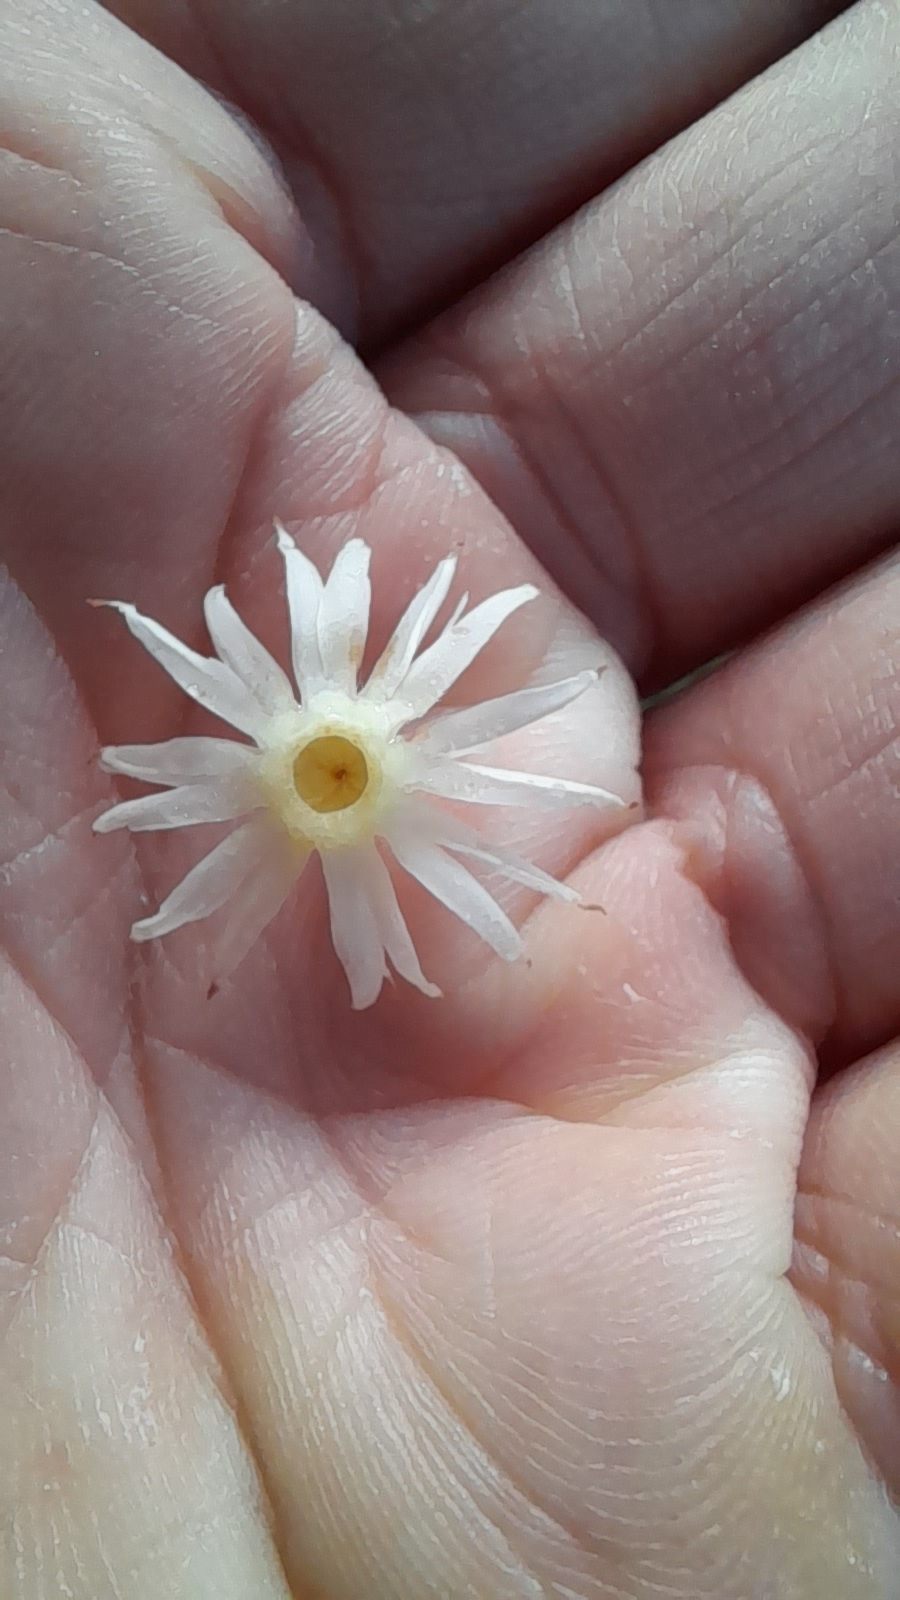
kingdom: Plantae
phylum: Tracheophyta
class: Magnoliopsida
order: Ericales
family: Sapotaceae
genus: Mimusops
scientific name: Mimusops elengi
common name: Spanish cherry
